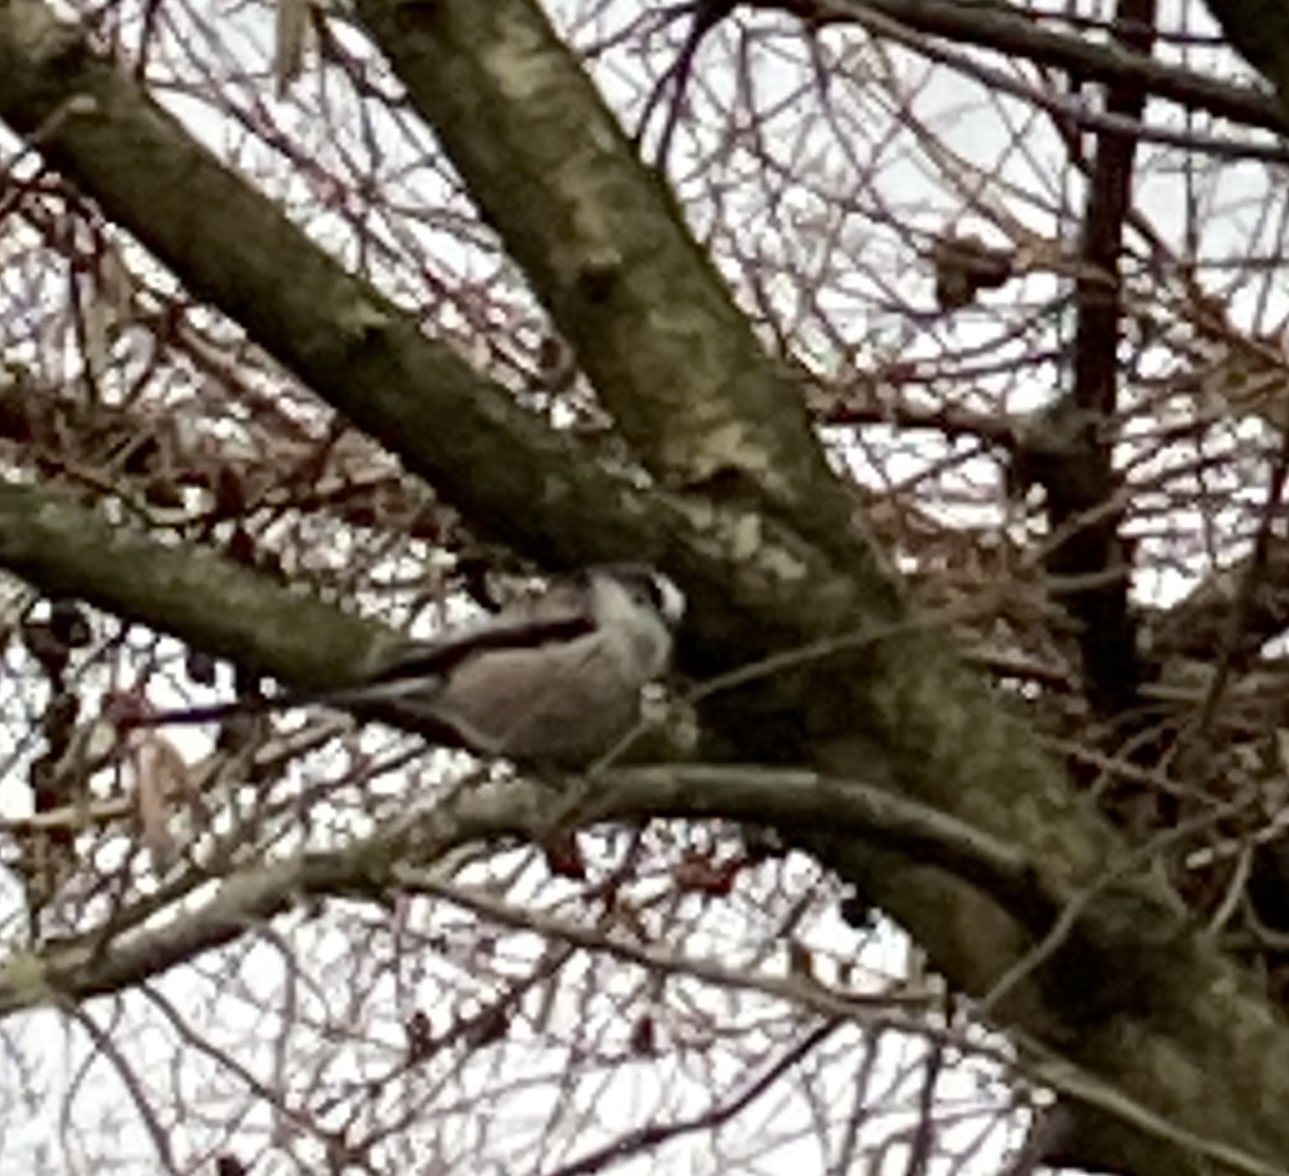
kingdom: Animalia
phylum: Chordata
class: Aves
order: Passeriformes
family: Aegithalidae
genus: Aegithalos
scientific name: Aegithalos caudatus
